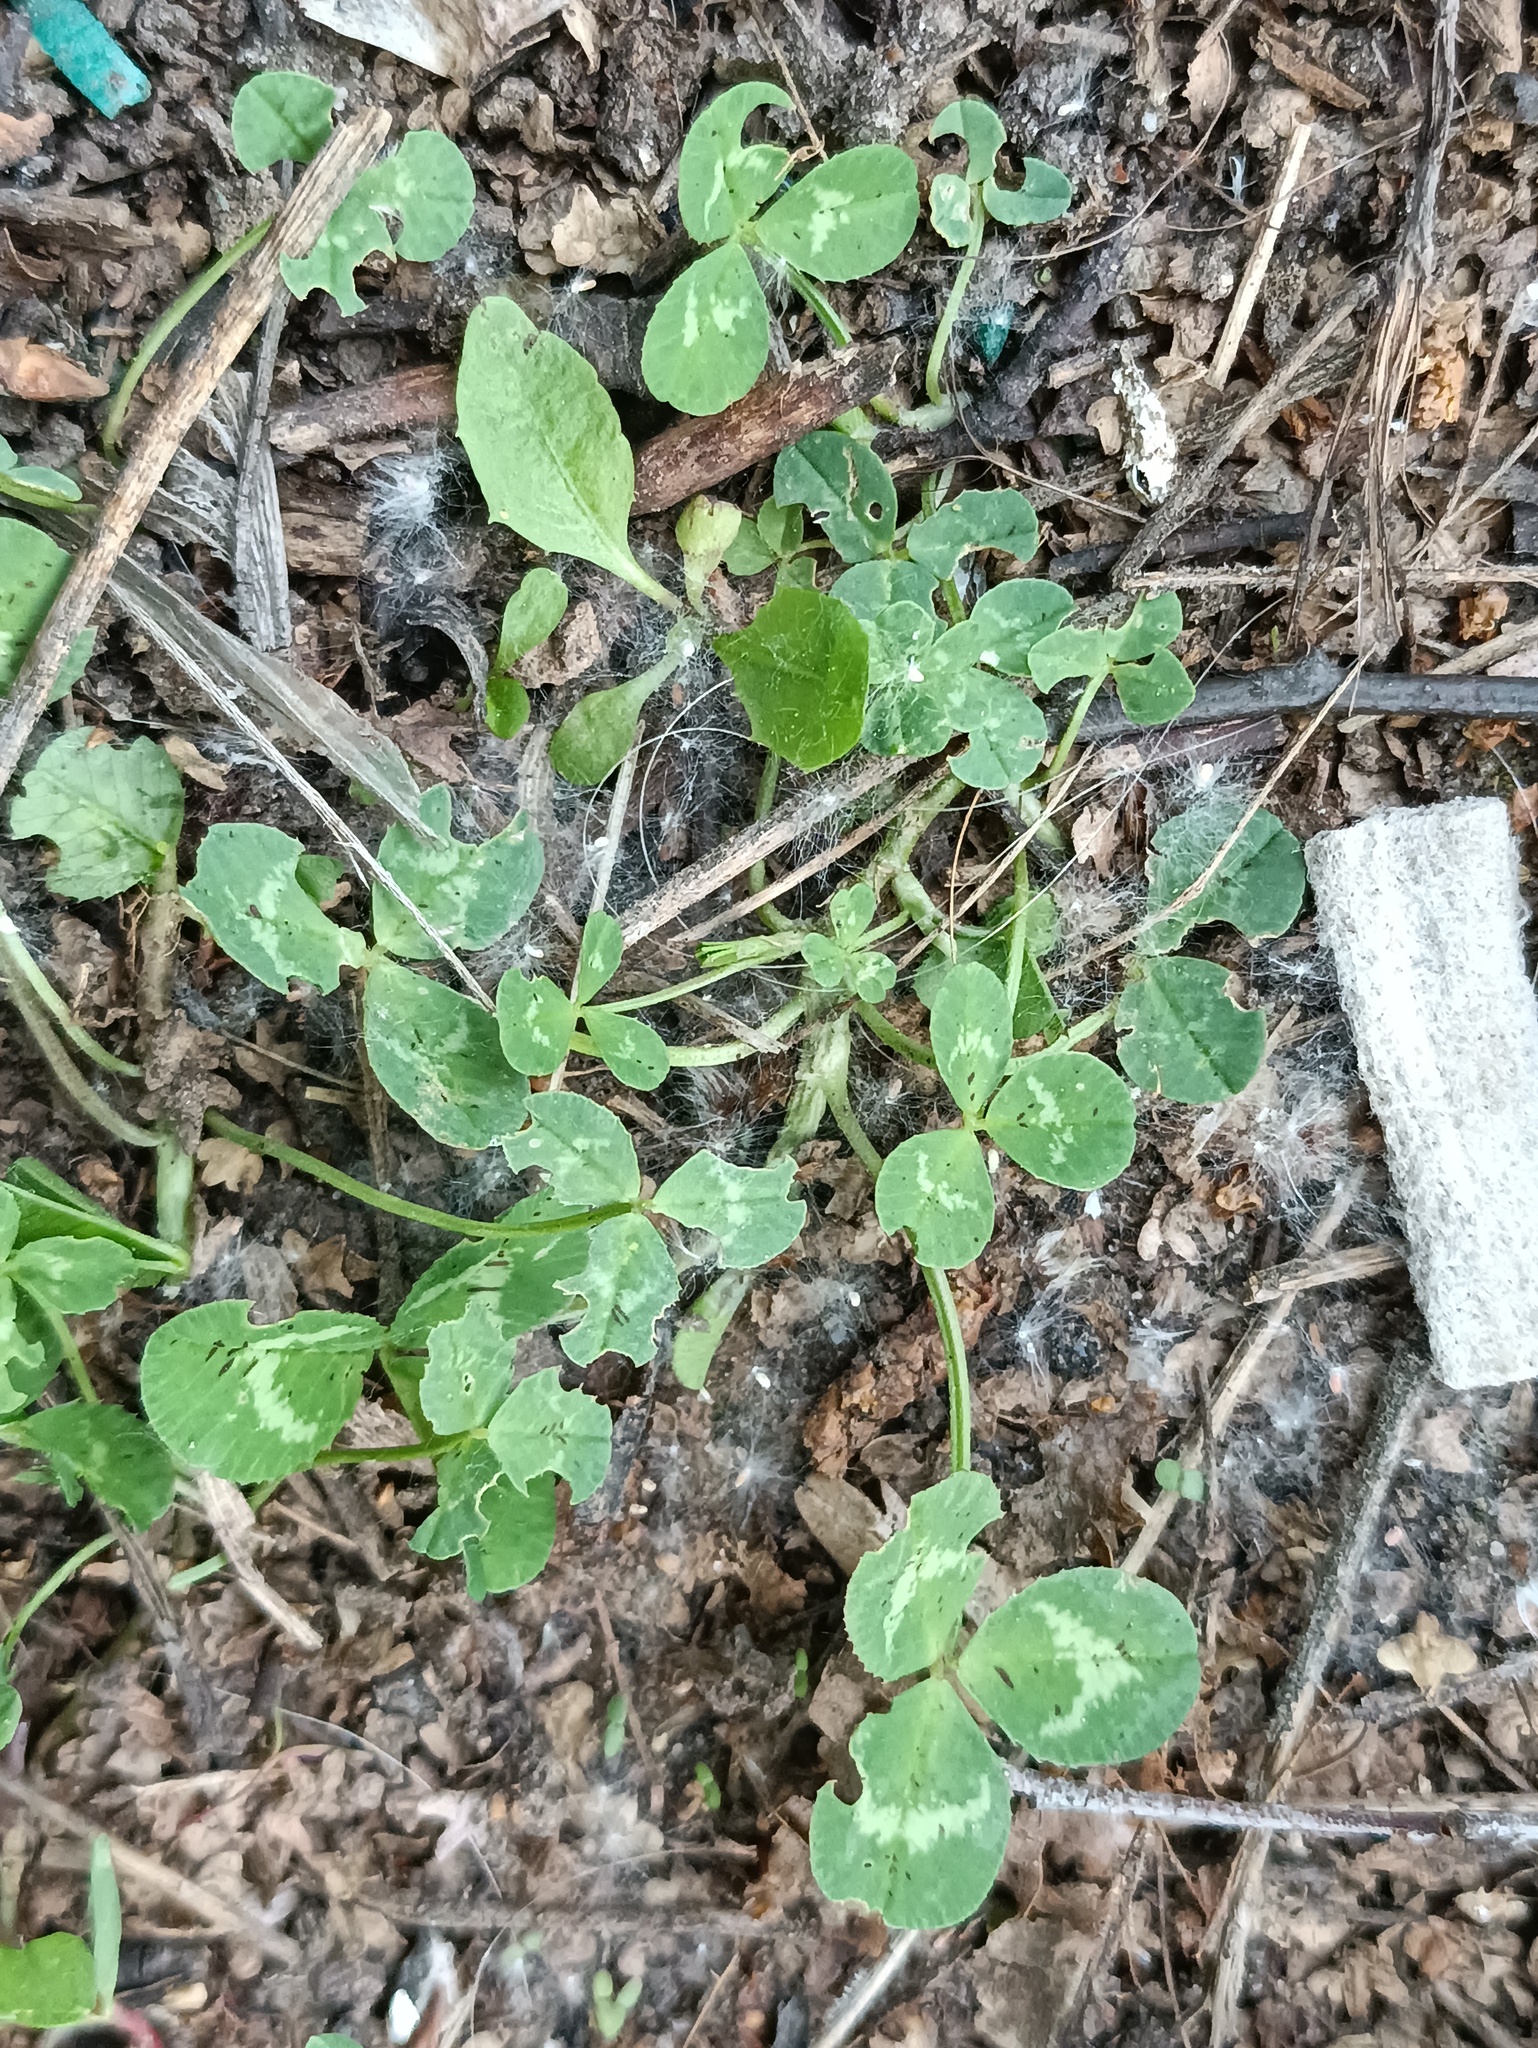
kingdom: Plantae
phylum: Tracheophyta
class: Magnoliopsida
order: Fabales
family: Fabaceae
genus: Trifolium
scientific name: Trifolium repens
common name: White clover
